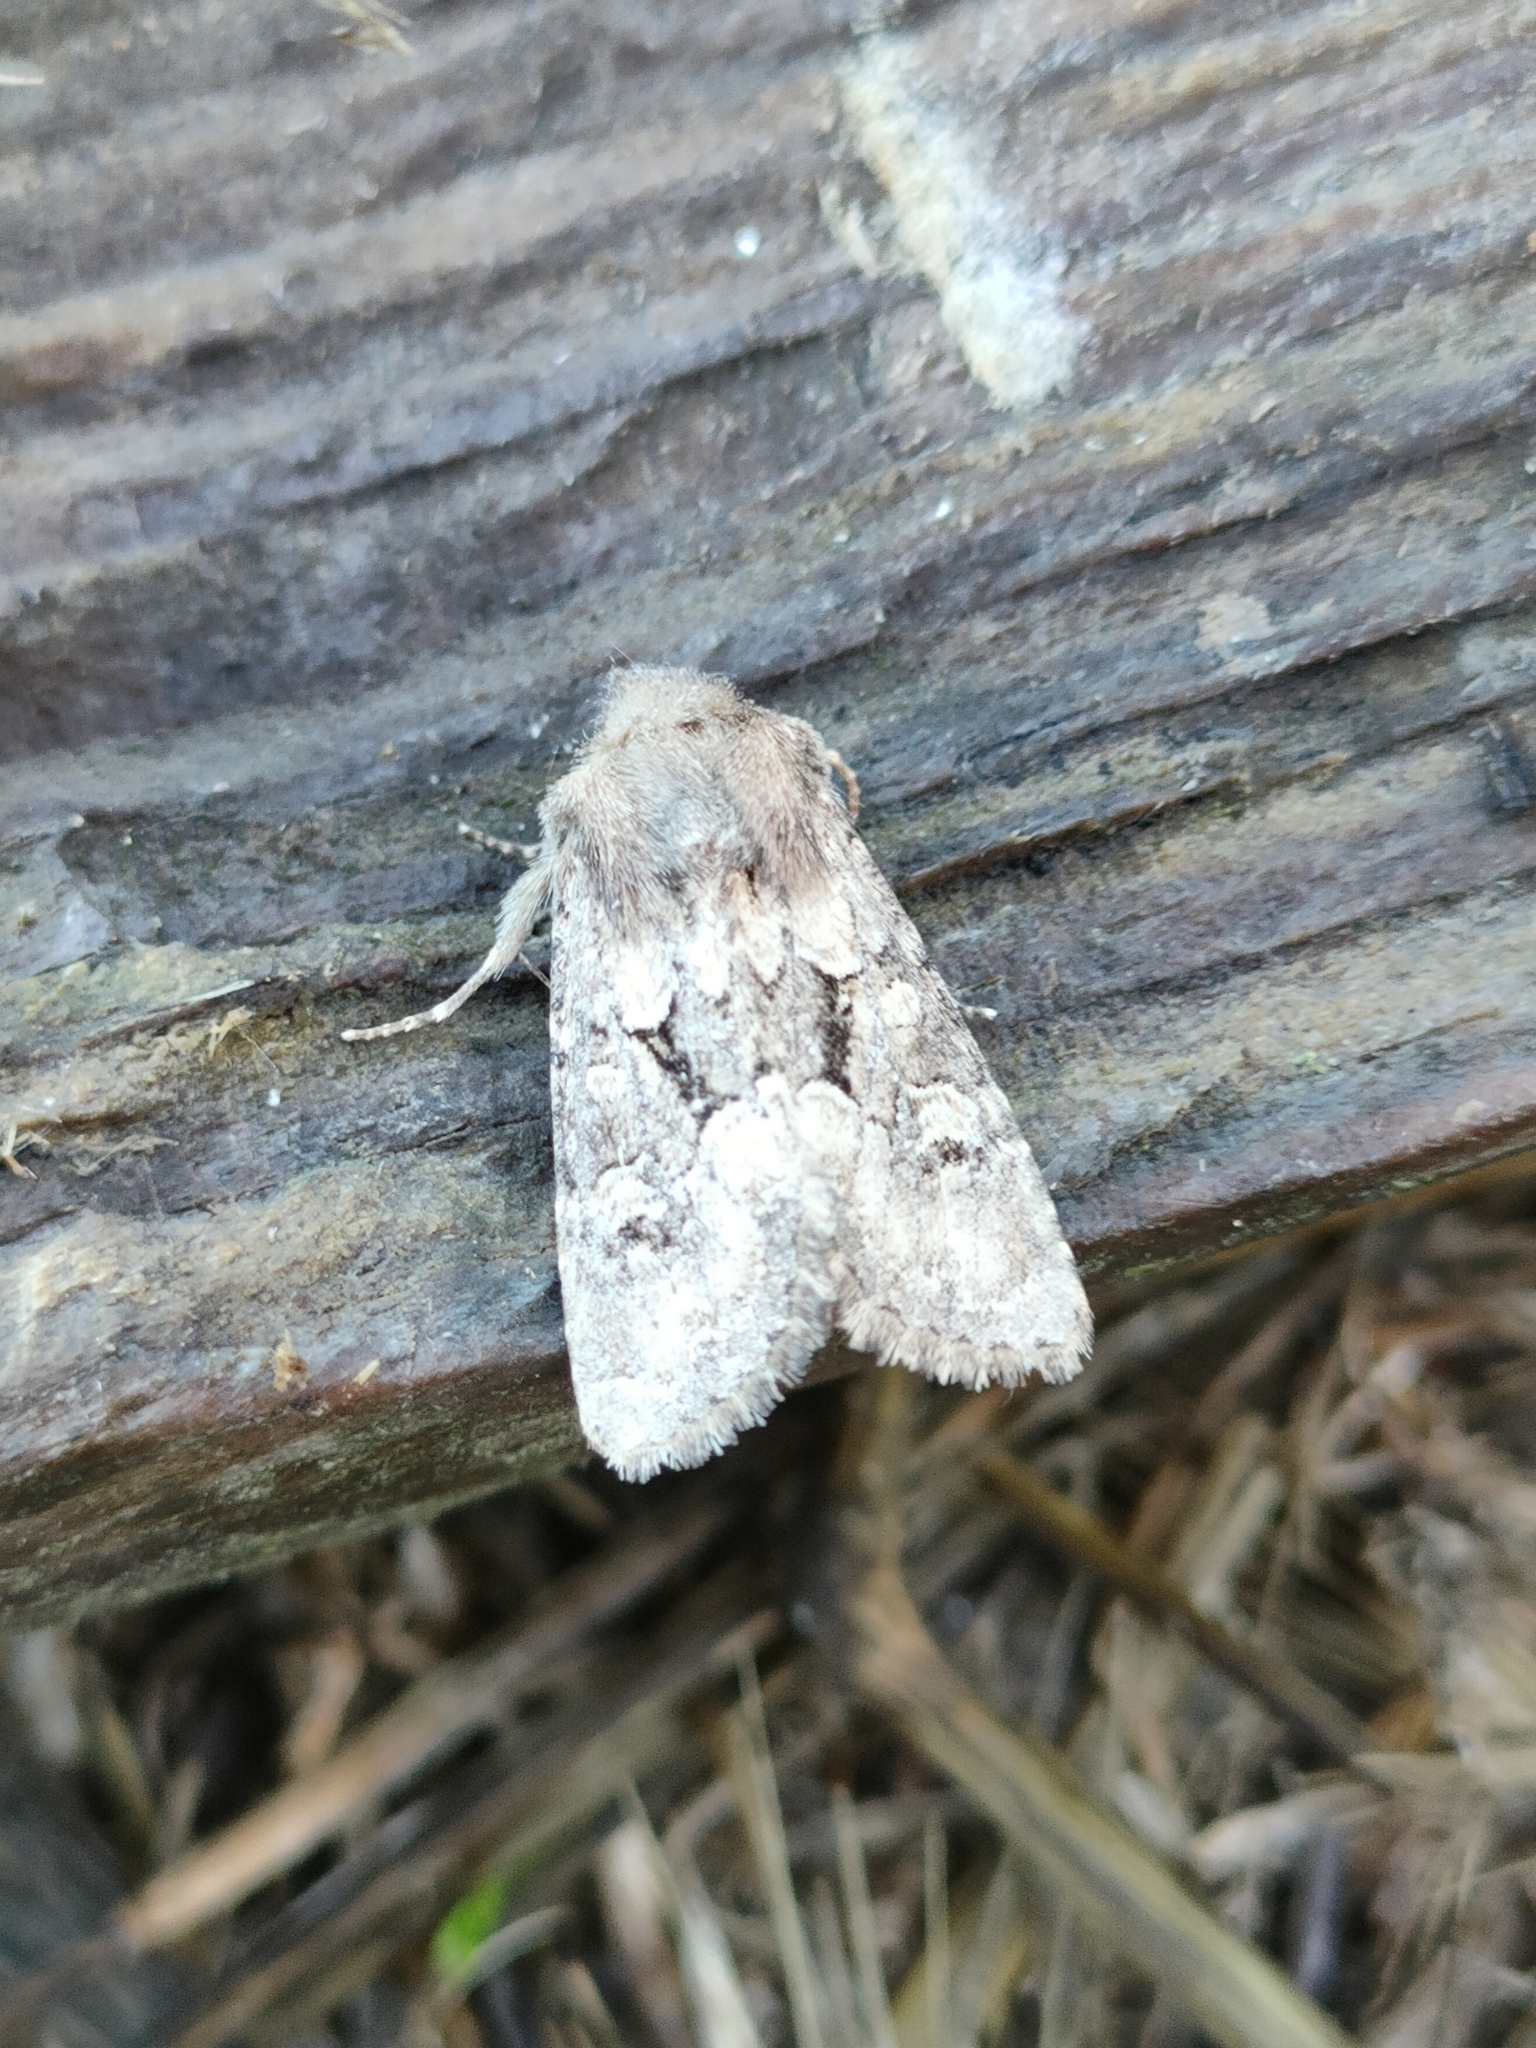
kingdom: Animalia
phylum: Arthropoda
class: Insecta
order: Lepidoptera
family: Noctuidae
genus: Luperina
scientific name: Luperina testacea
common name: Flounced rustic
